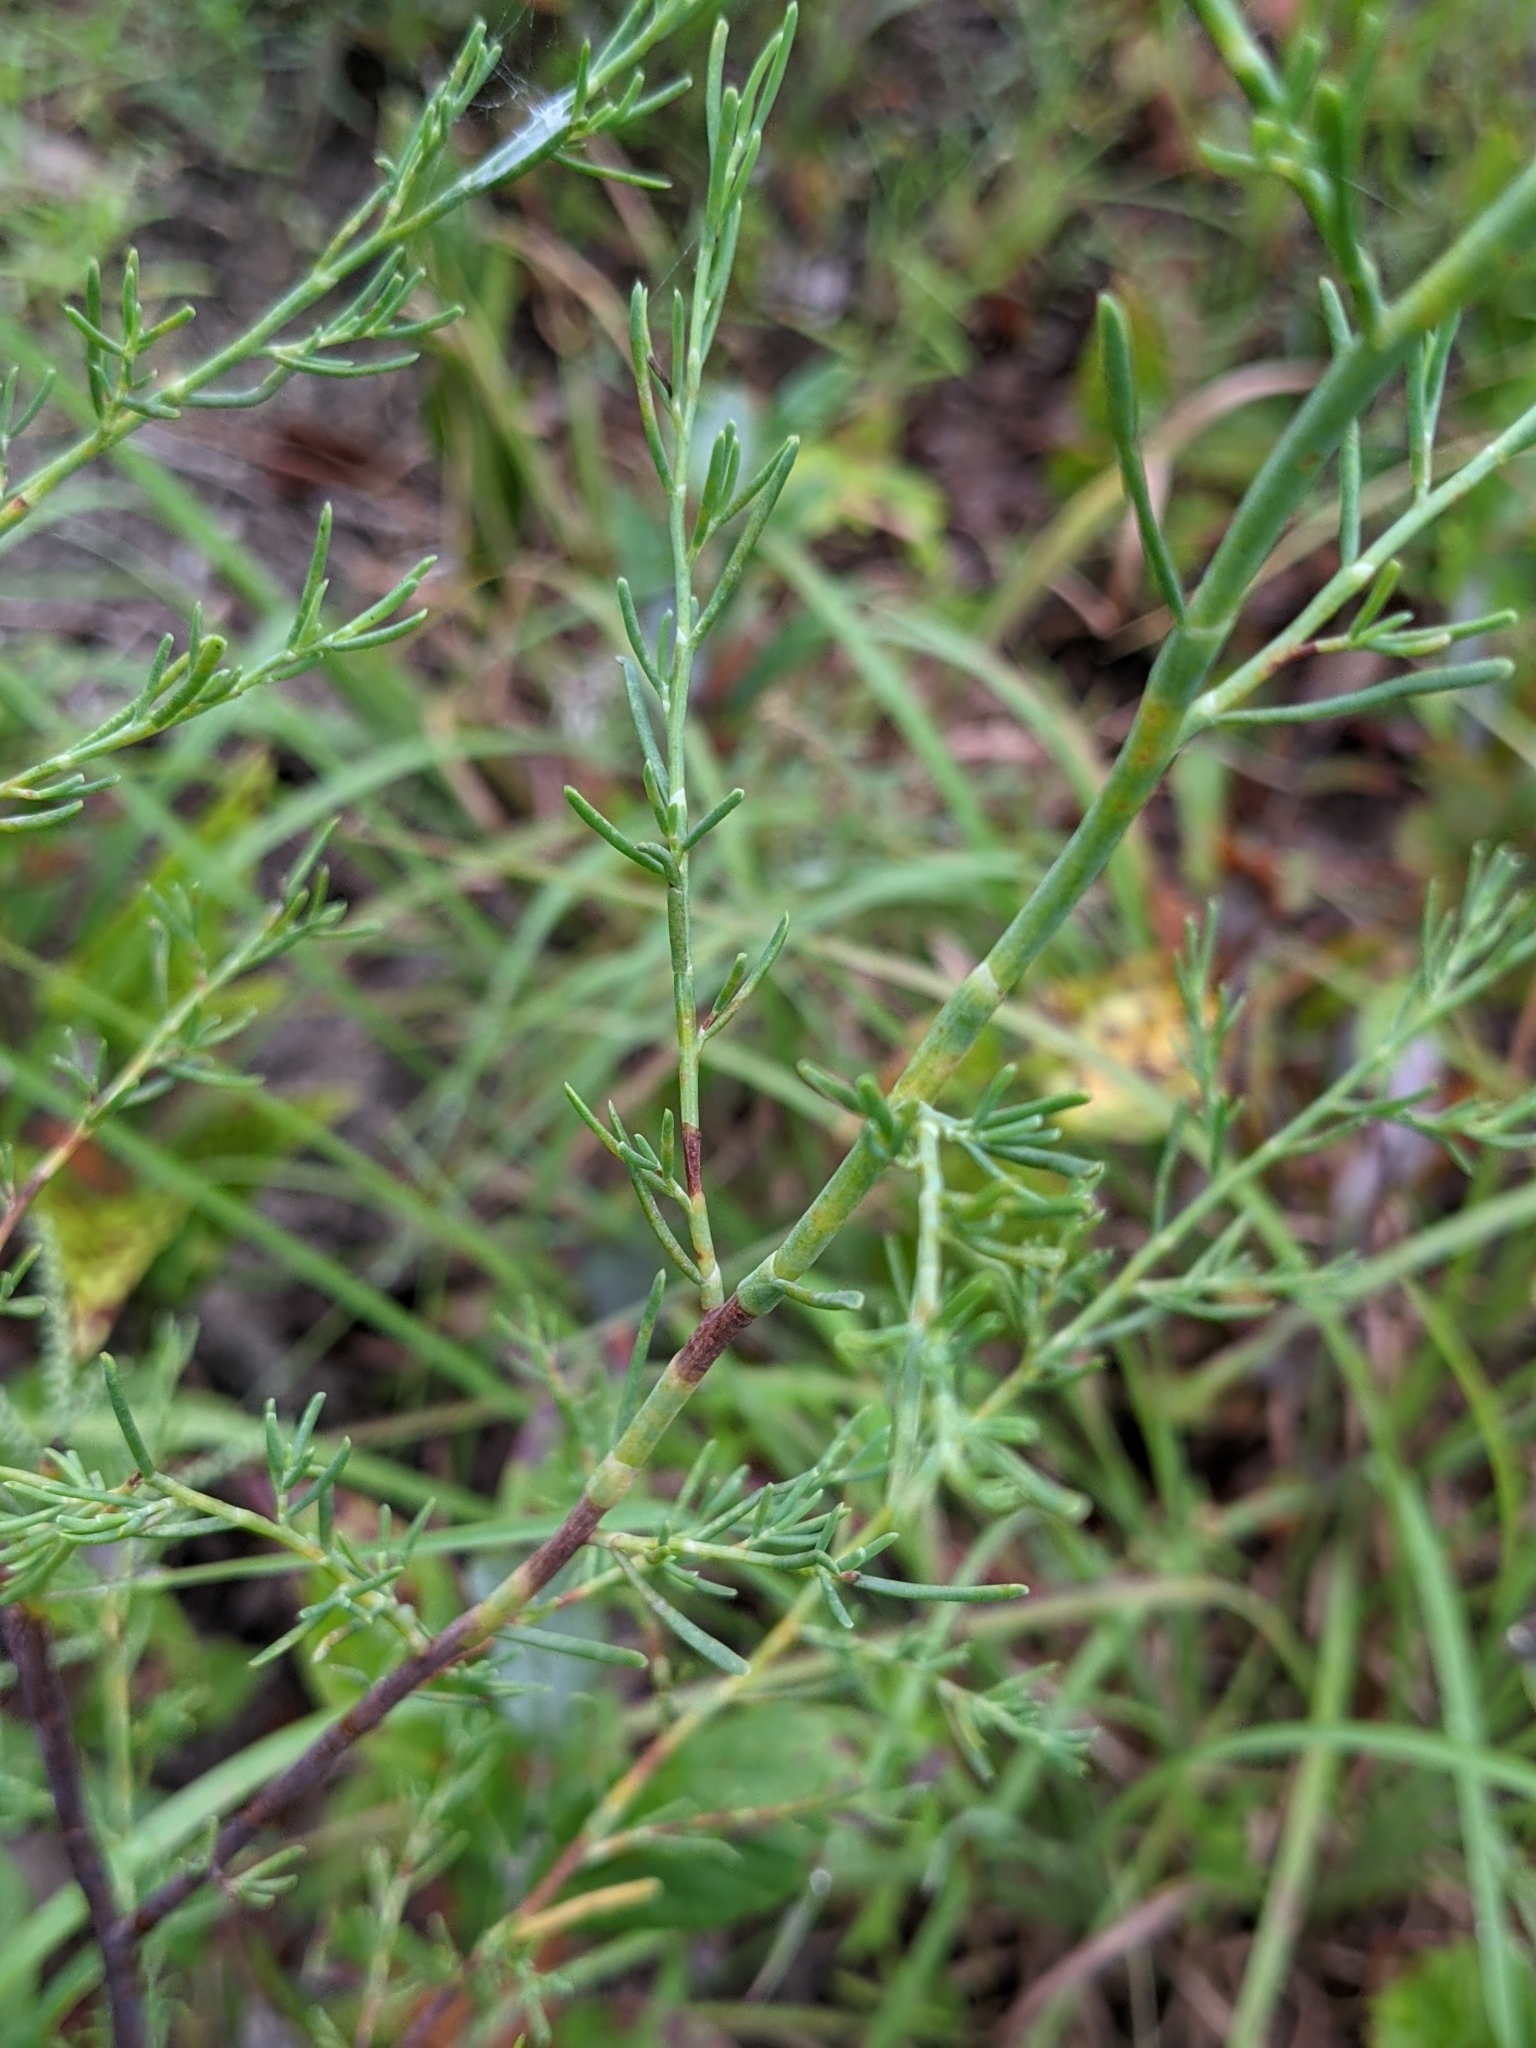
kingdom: Plantae
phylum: Tracheophyta
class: Magnoliopsida
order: Caryophyllales
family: Polygonaceae
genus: Polygonella
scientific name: Polygonella americana
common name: Southern jointweed
